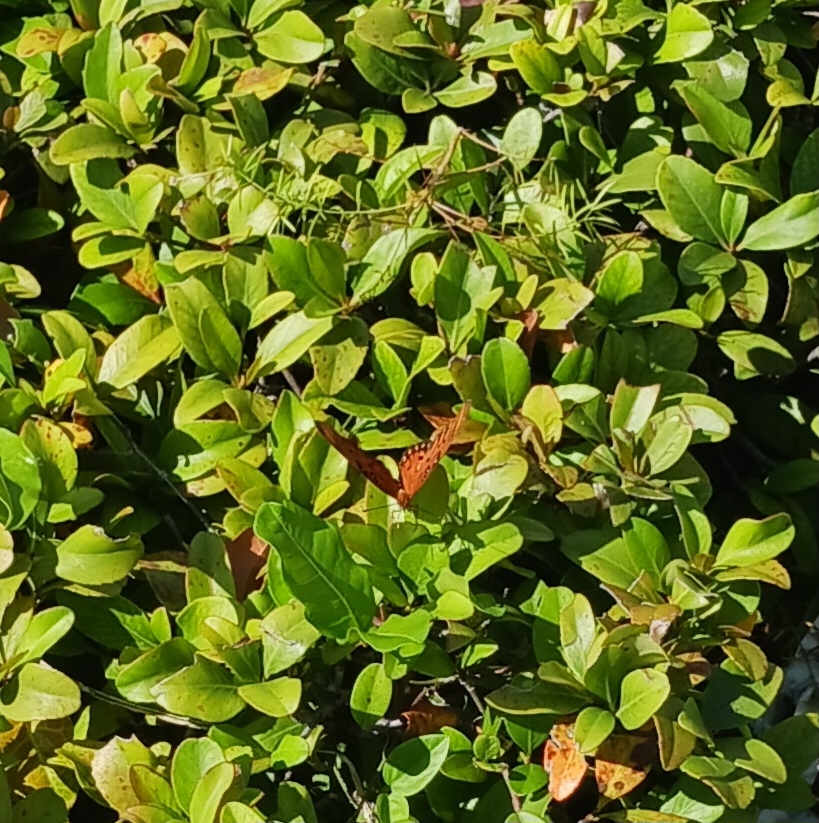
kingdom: Animalia
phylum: Arthropoda
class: Insecta
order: Lepidoptera
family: Nymphalidae
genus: Dione
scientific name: Dione vanillae
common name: Gulf fritillary
